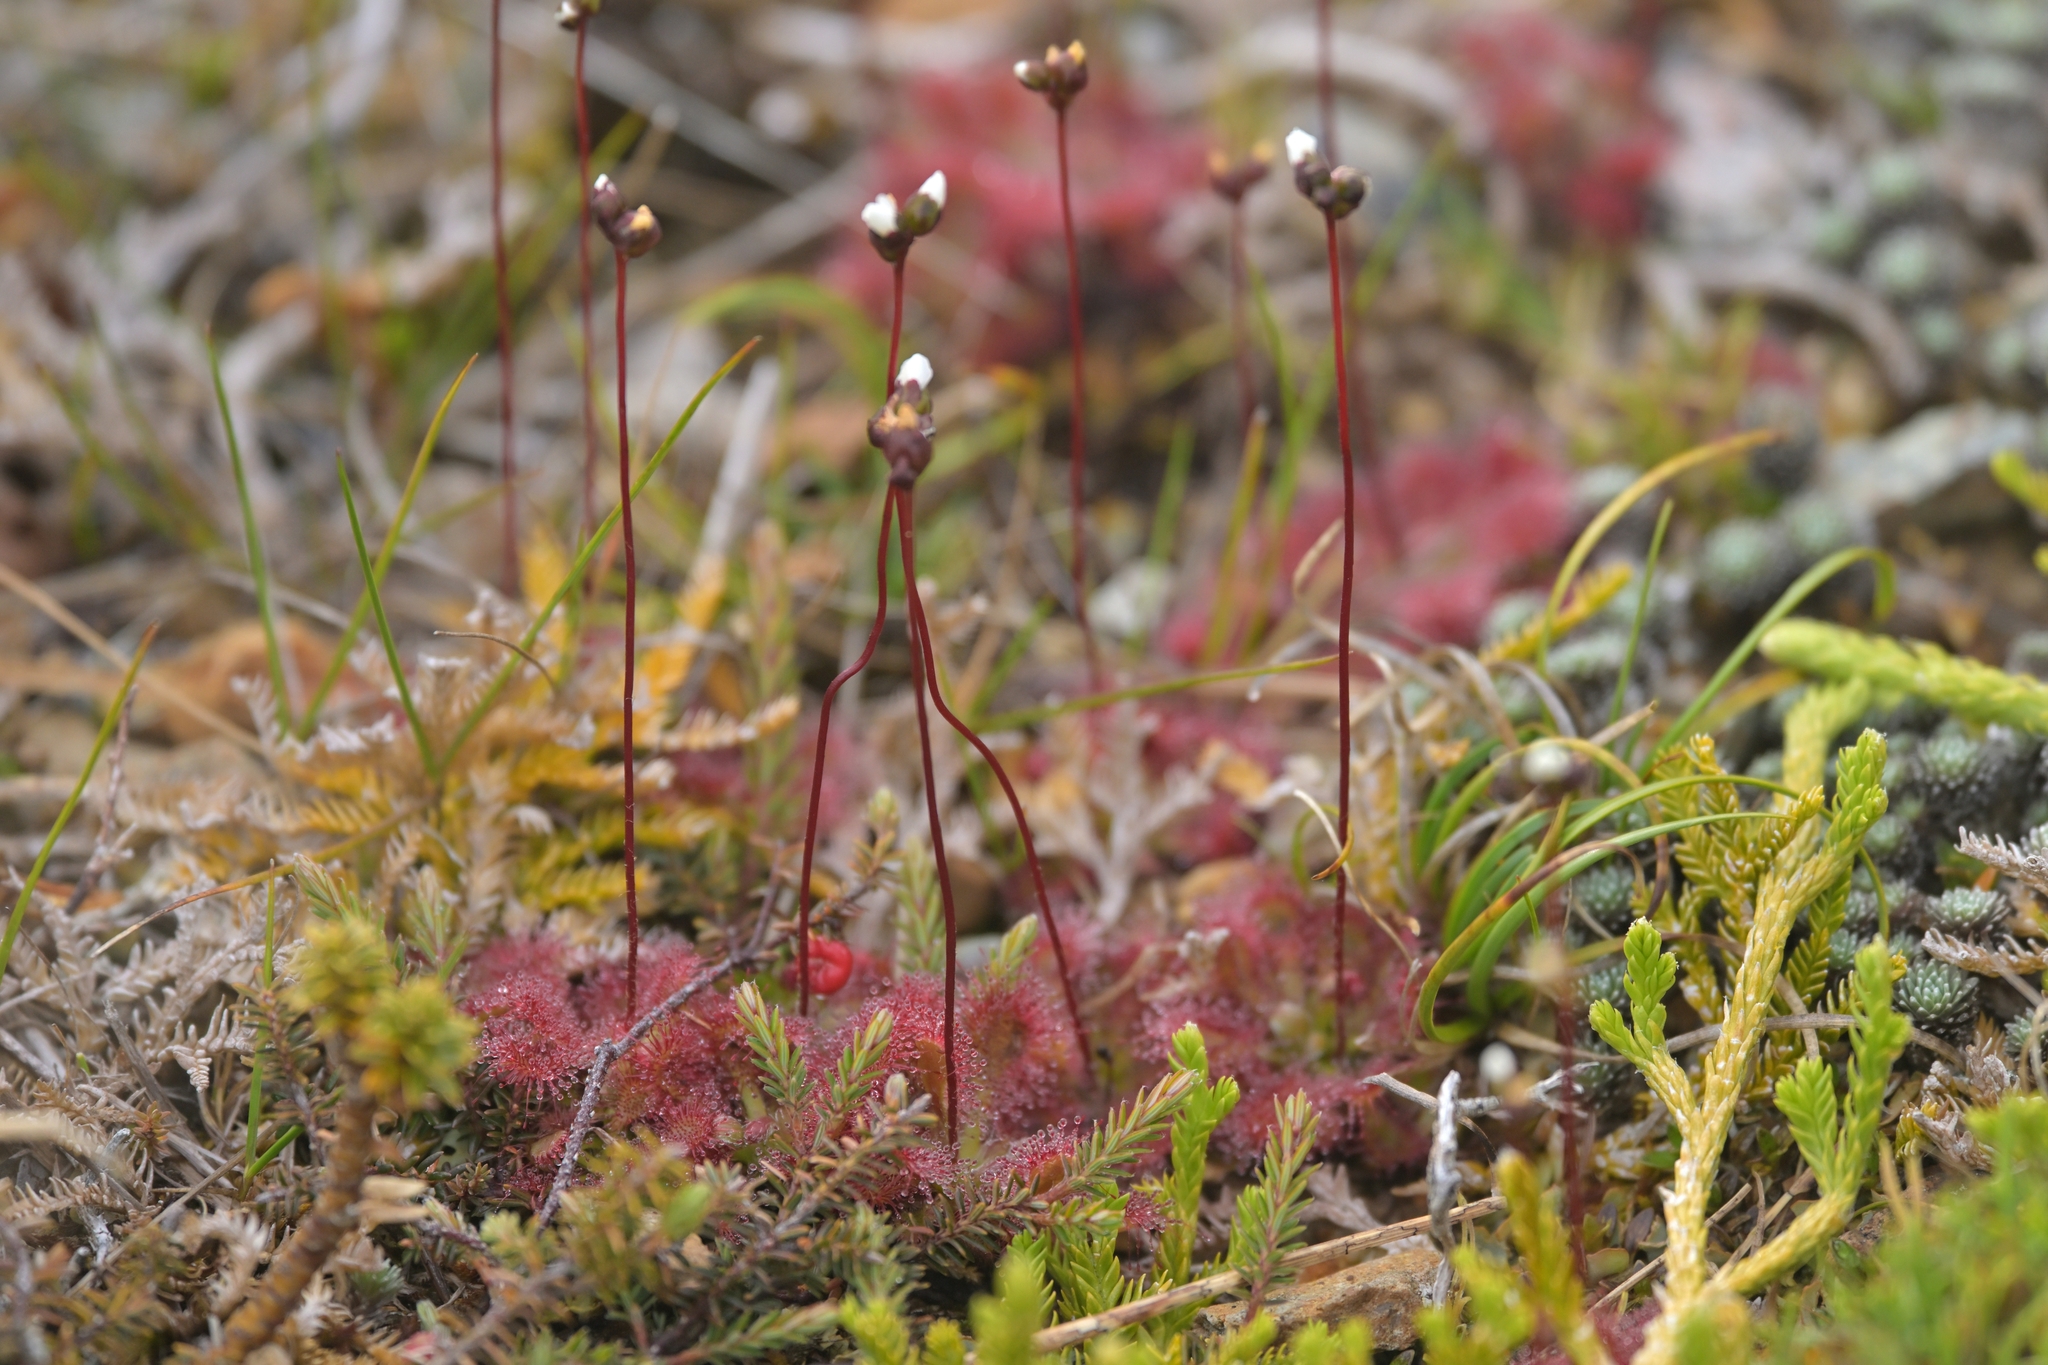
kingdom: Plantae
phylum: Tracheophyta
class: Magnoliopsida
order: Caryophyllales
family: Droseraceae
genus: Drosera
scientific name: Drosera spatulata
